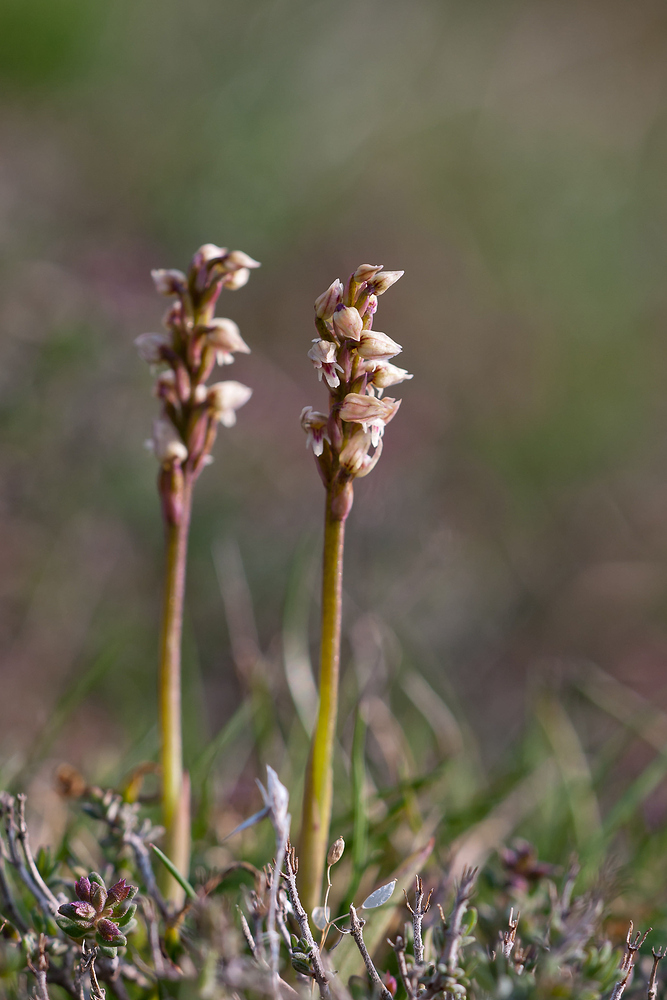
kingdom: Plantae
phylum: Tracheophyta
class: Liliopsida
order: Asparagales
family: Orchidaceae
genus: Neotinea
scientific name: Neotinea maculata
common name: Dense-flowered orchid
